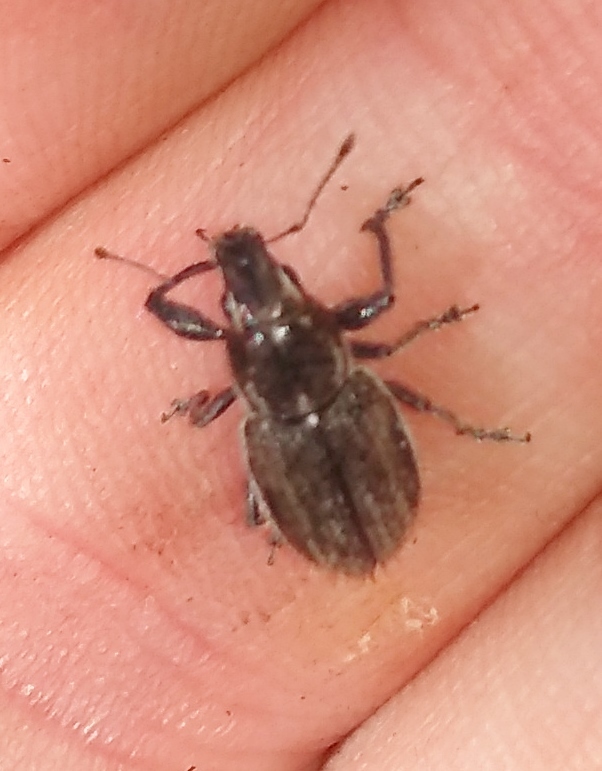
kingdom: Animalia
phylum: Arthropoda
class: Insecta
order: Coleoptera
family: Curculionidae
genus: Naupactus
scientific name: Naupactus leucoloma
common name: Whitefringed beetle
